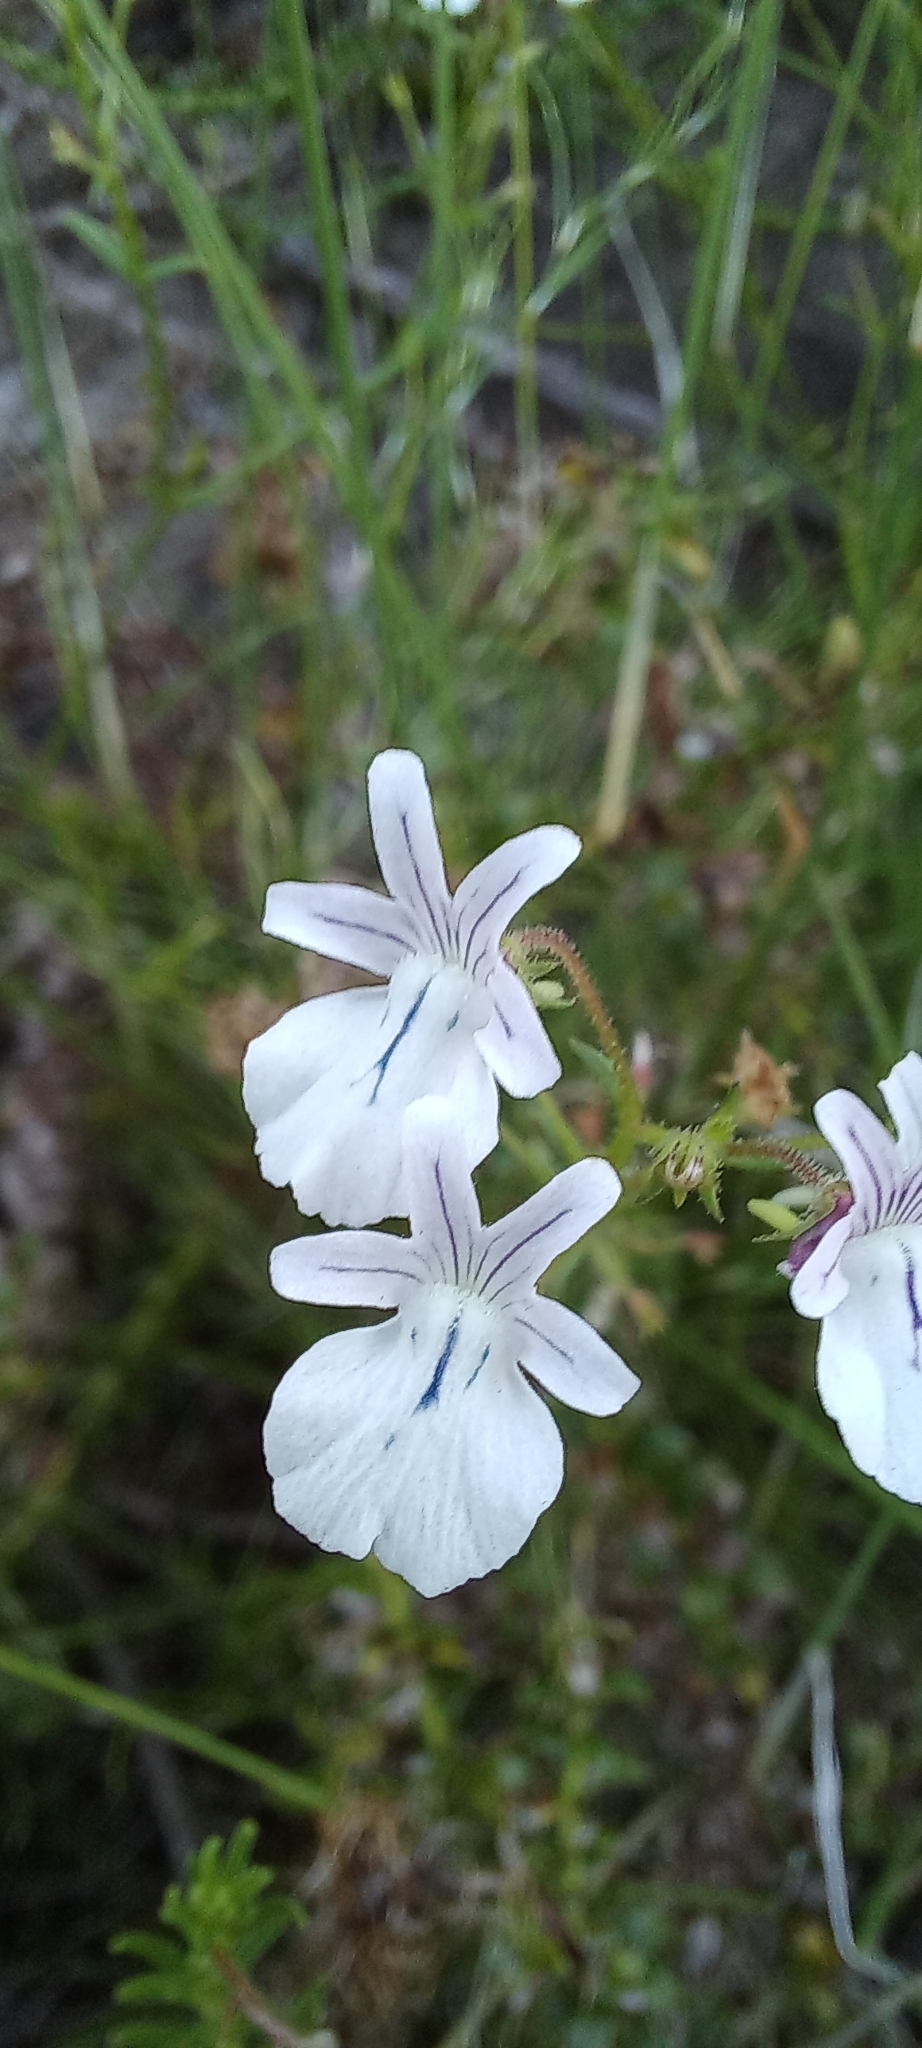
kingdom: Plantae
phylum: Tracheophyta
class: Magnoliopsida
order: Lamiales
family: Scrophulariaceae
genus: Nemesia
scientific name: Nemesia diffusa
